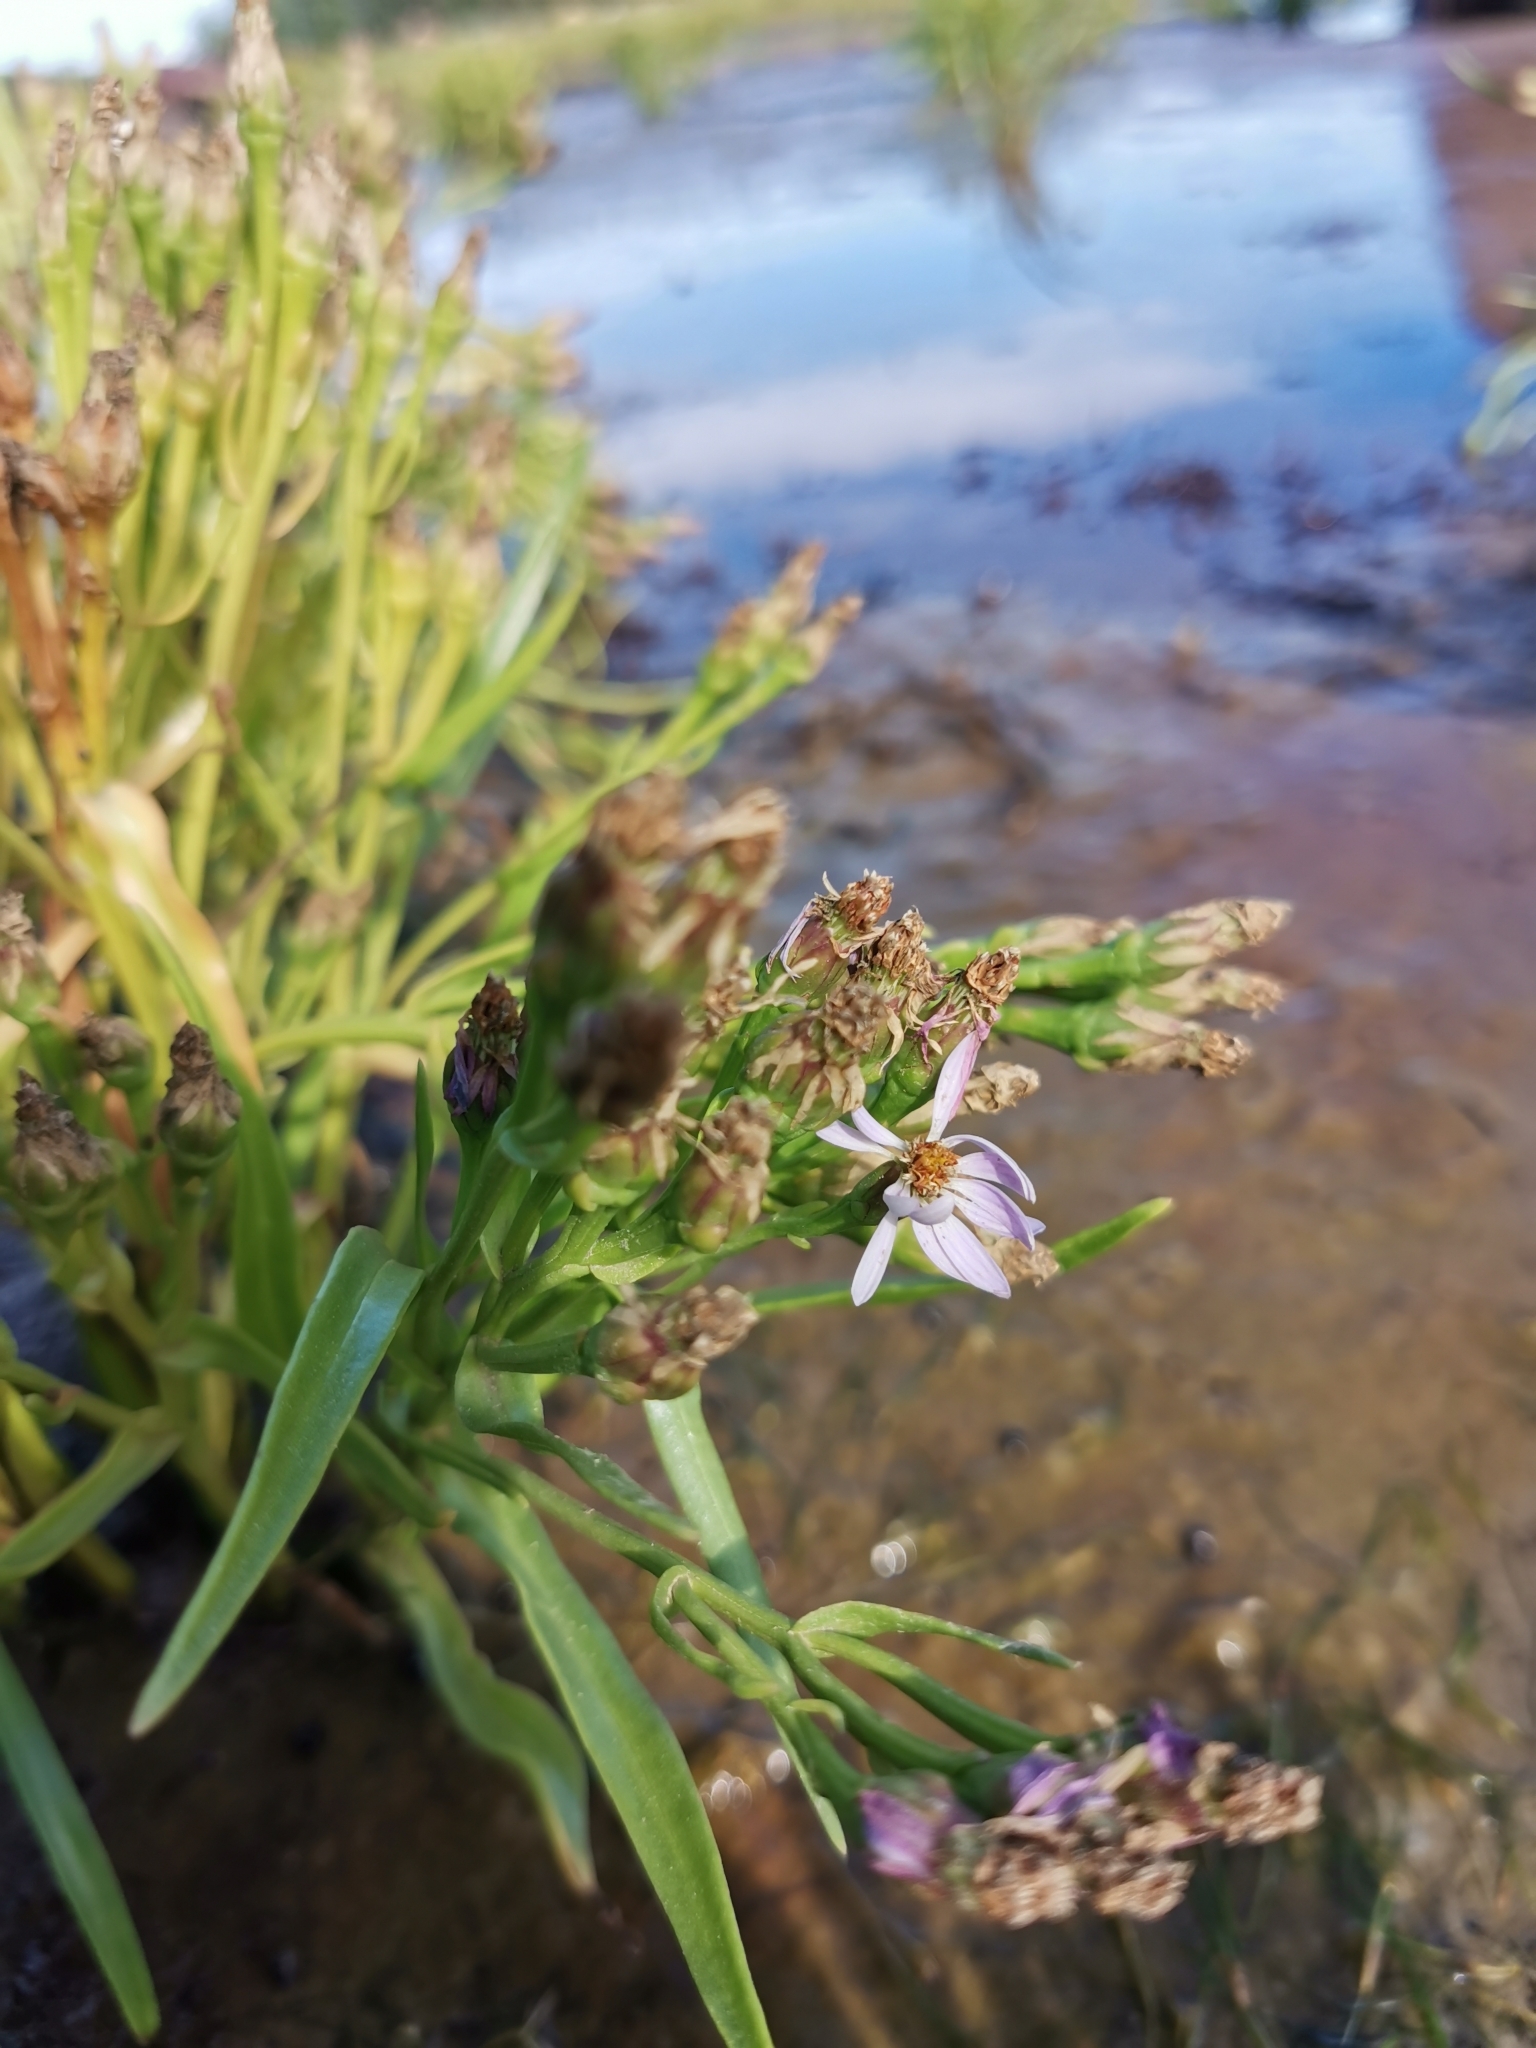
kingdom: Plantae
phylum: Tracheophyta
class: Magnoliopsida
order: Asterales
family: Asteraceae
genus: Tripolium
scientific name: Tripolium pannonicum
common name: Sea aster
